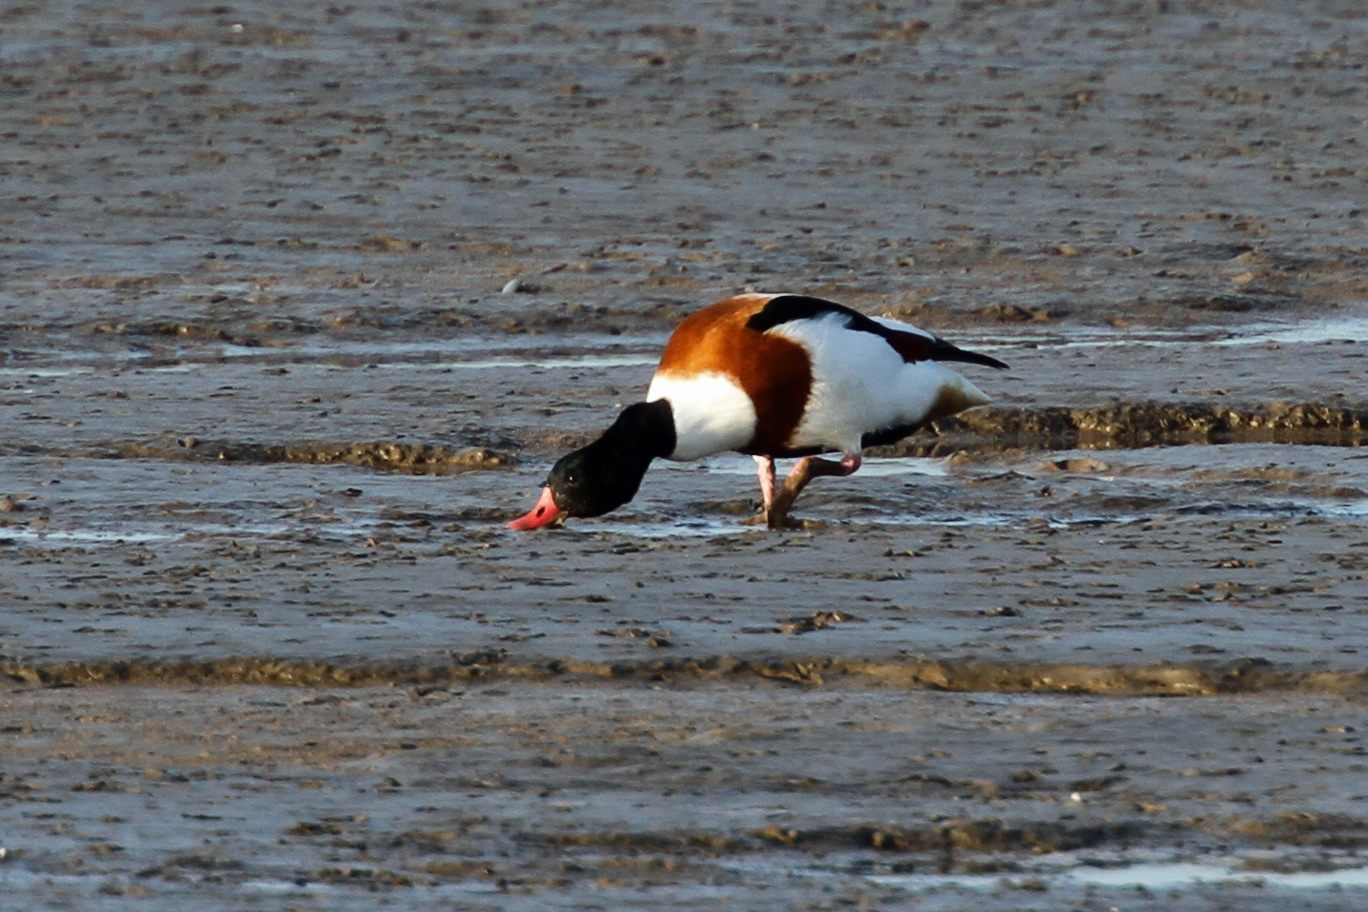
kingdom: Animalia
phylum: Chordata
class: Aves
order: Anseriformes
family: Anatidae
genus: Tadorna
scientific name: Tadorna tadorna
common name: Common shelduck
